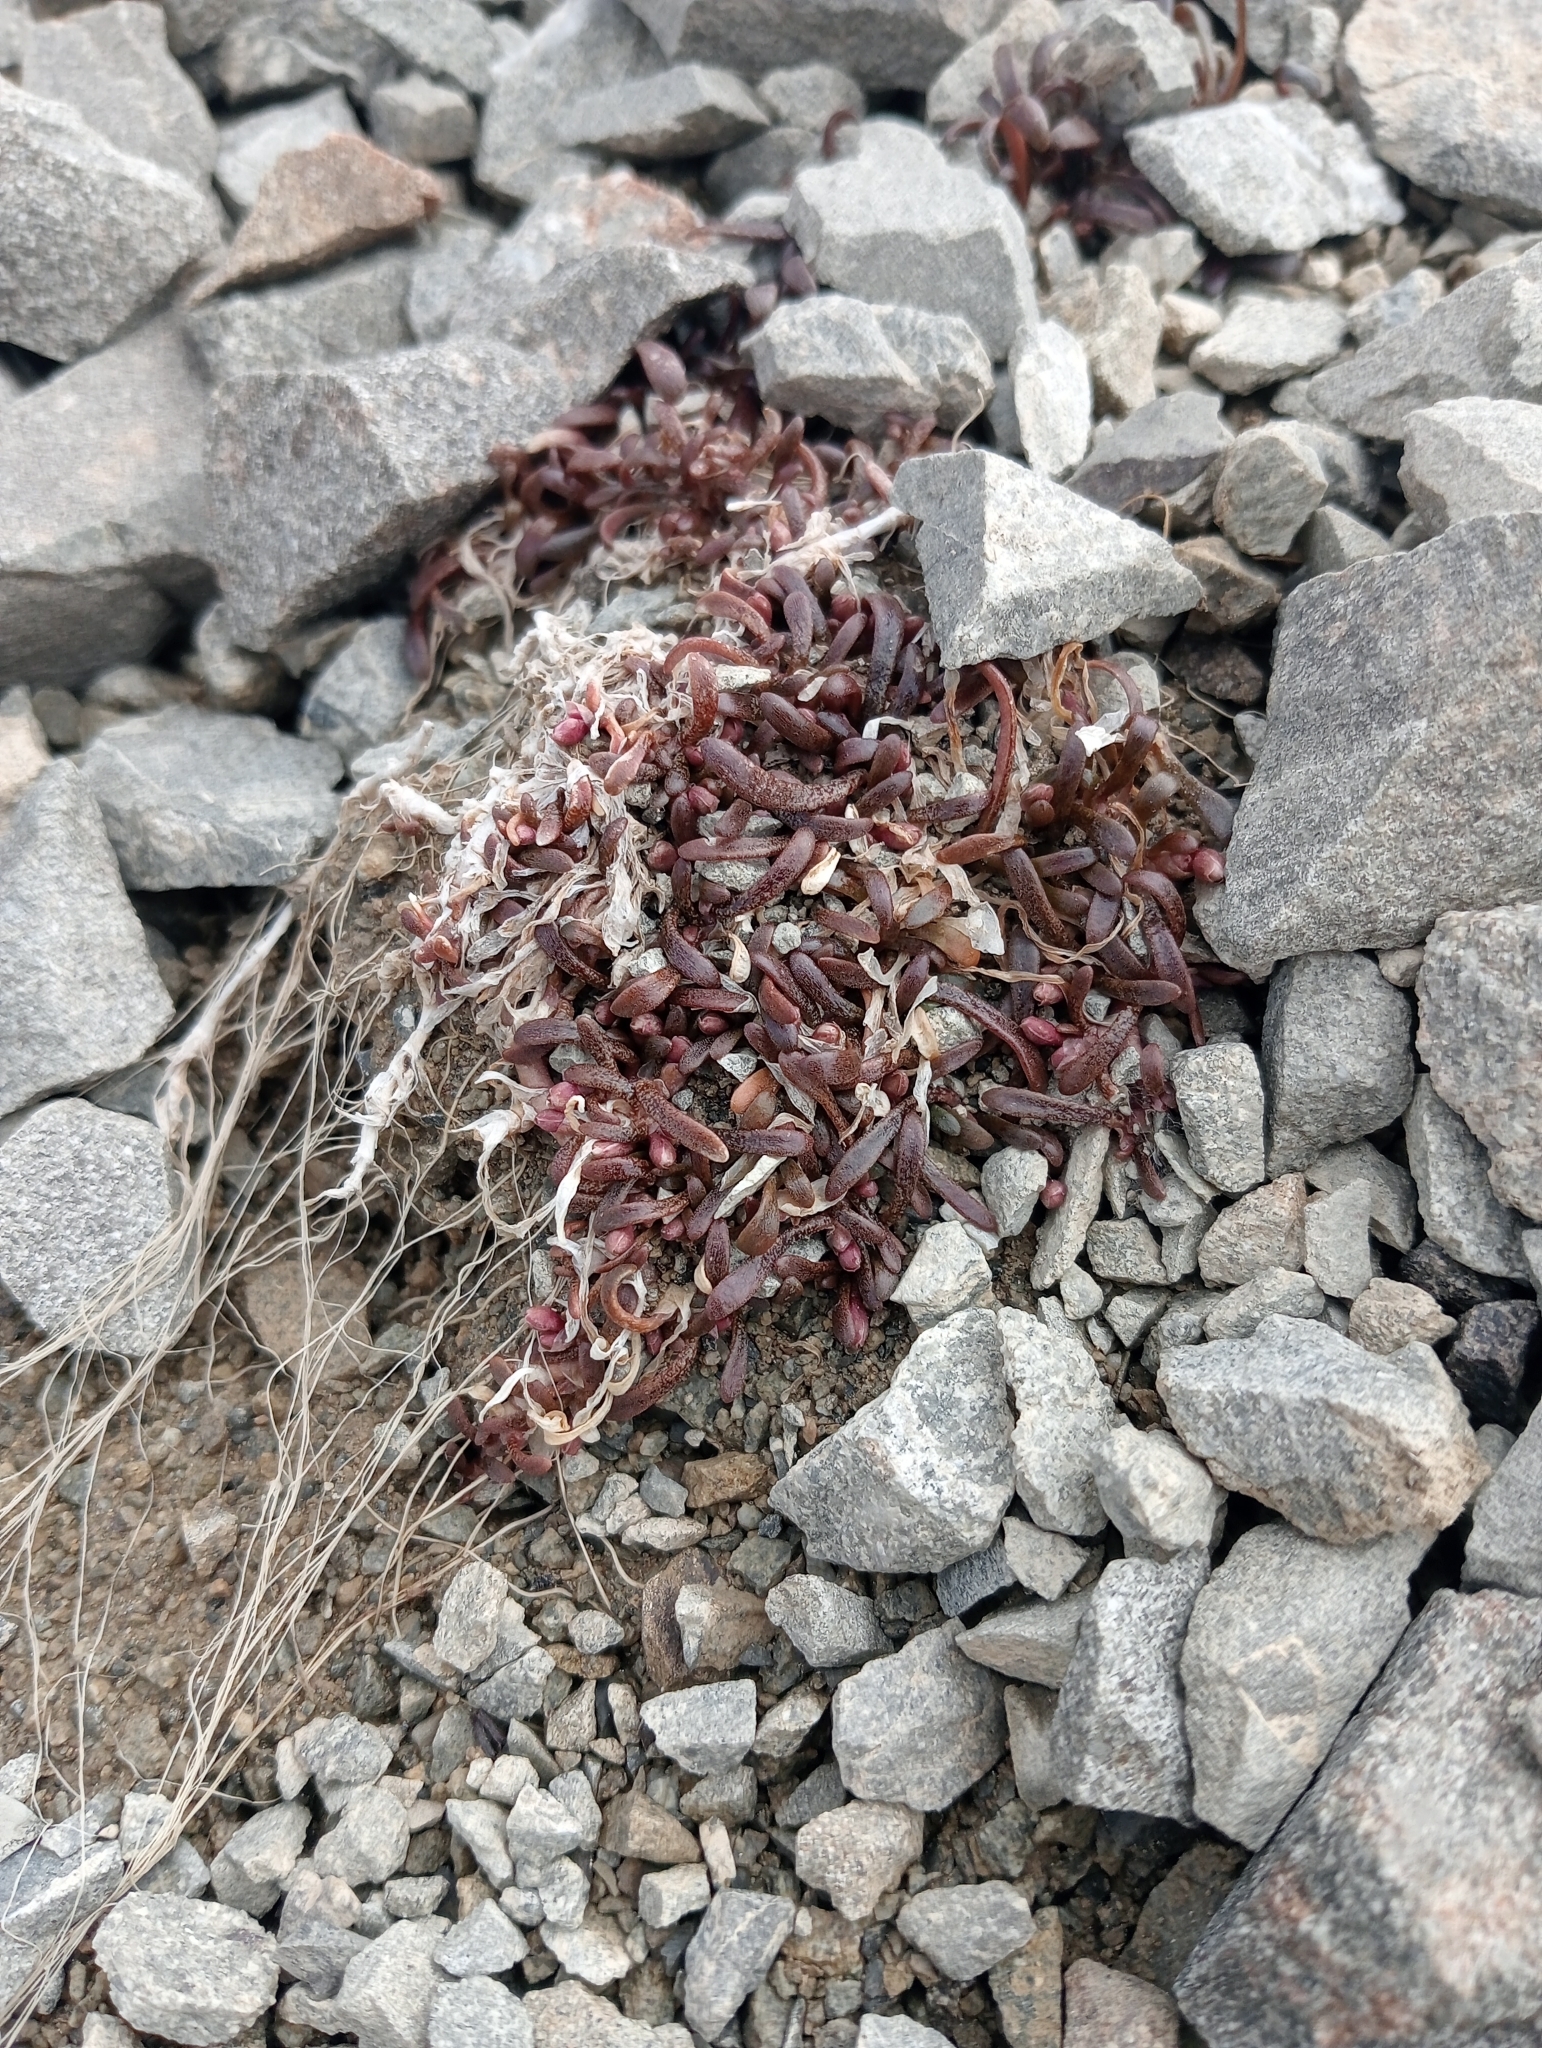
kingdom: Plantae
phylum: Tracheophyta
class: Magnoliopsida
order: Caryophyllales
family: Montiaceae
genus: Montia
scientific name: Montia erythrophylla
